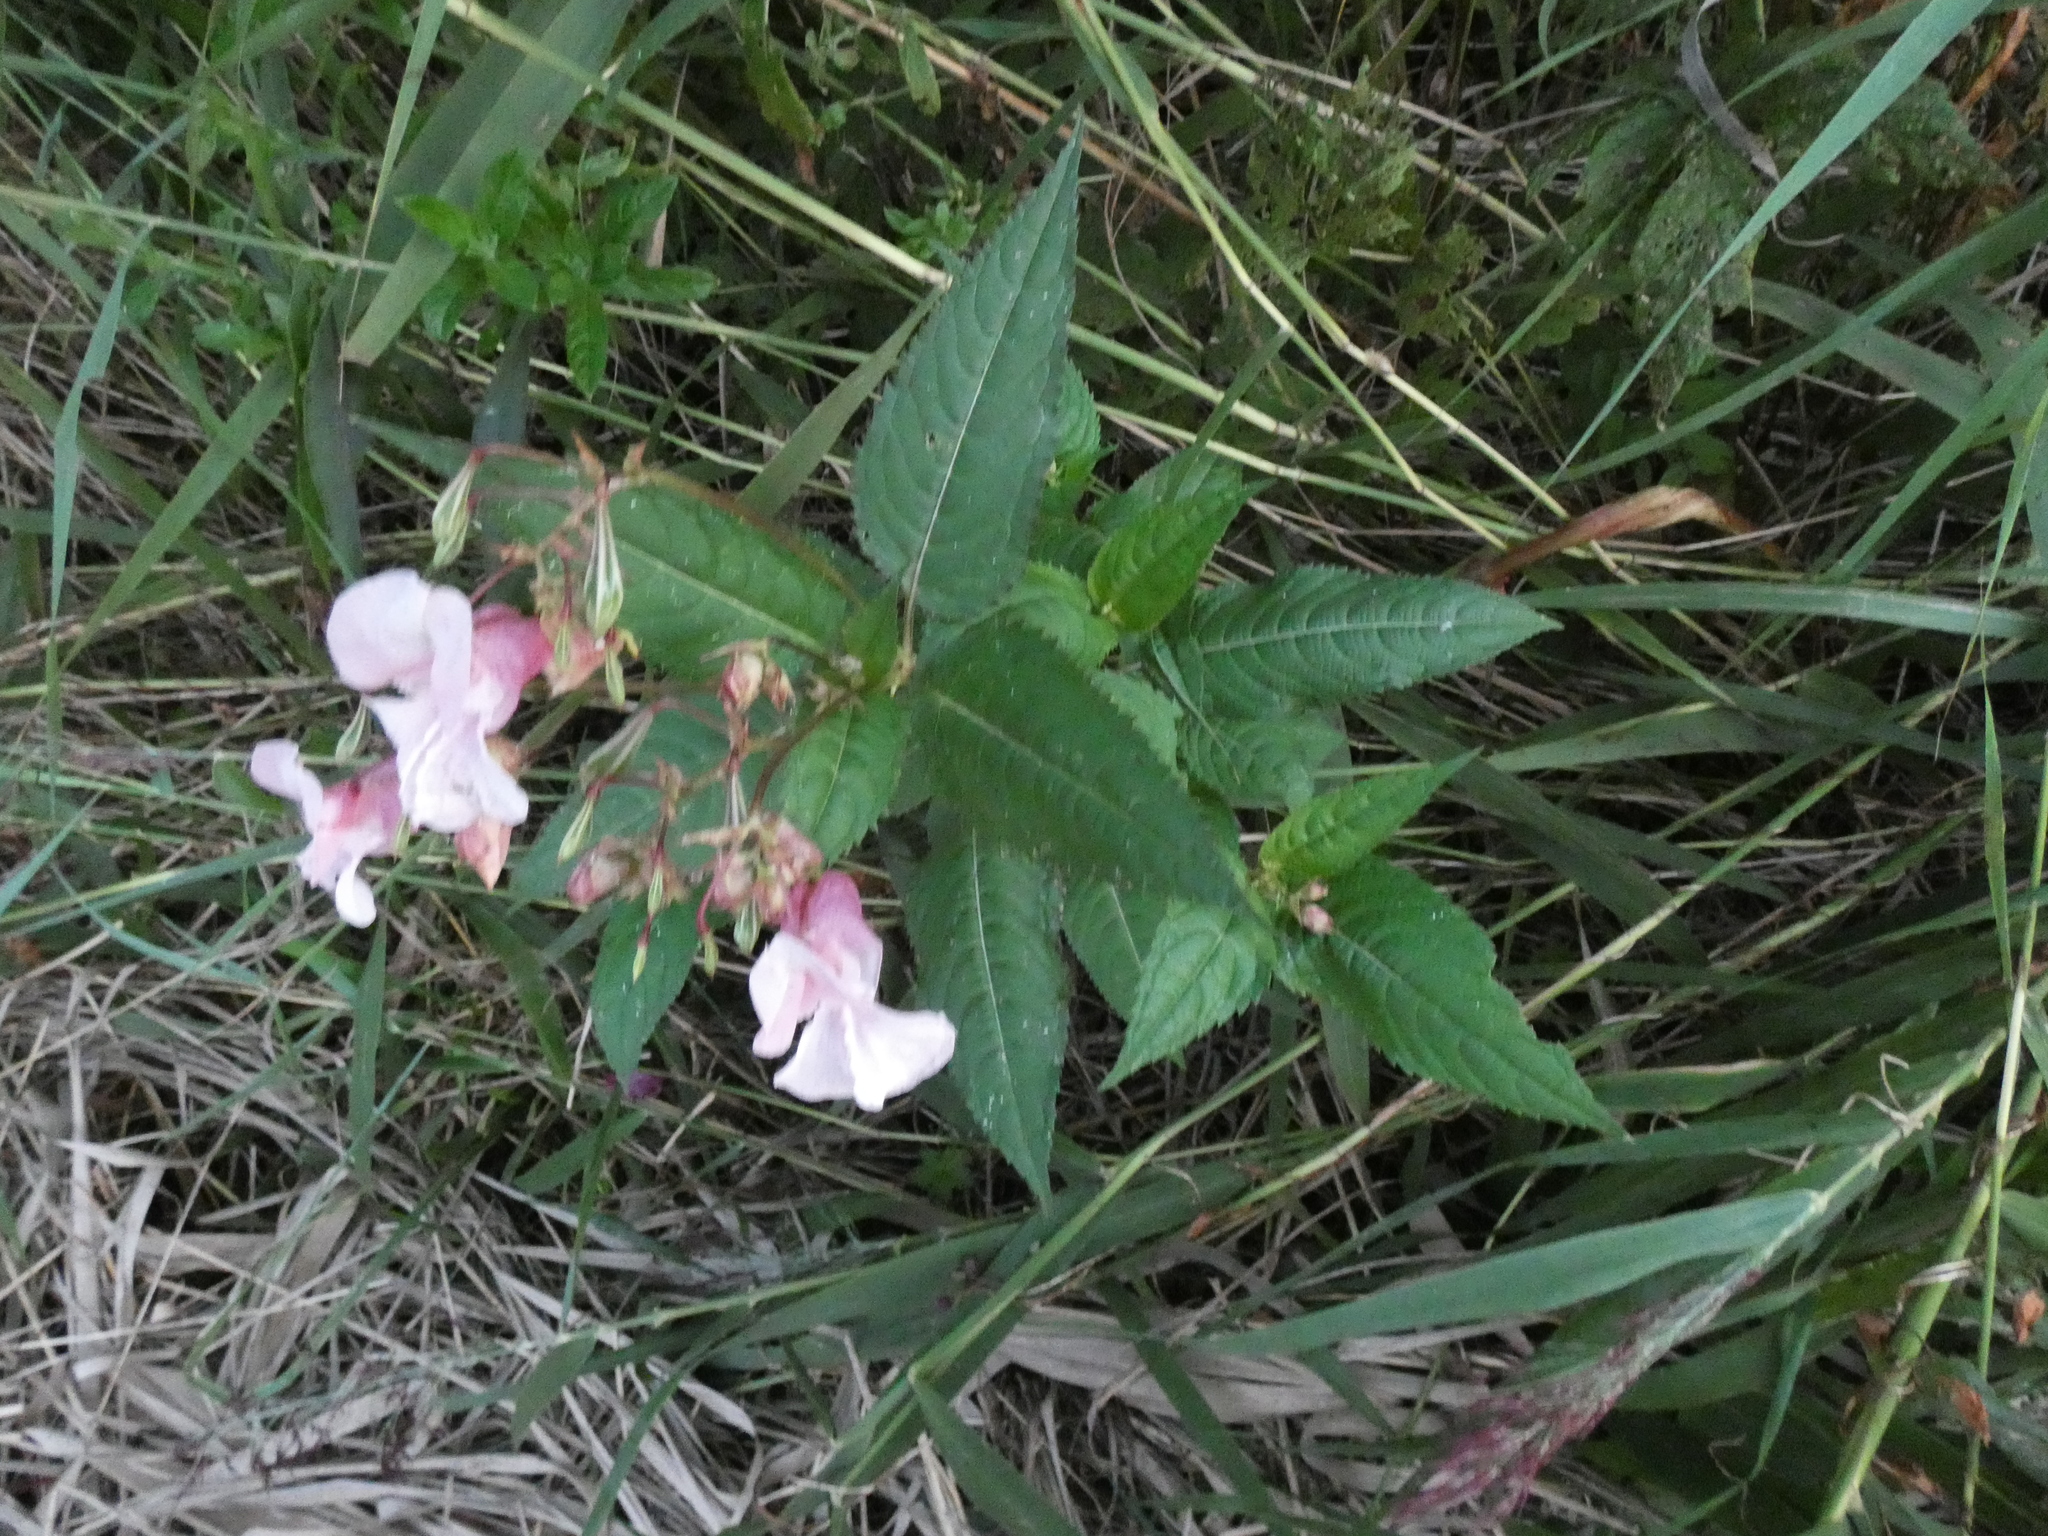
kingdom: Plantae
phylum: Tracheophyta
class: Magnoliopsida
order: Ericales
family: Balsaminaceae
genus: Impatiens
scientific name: Impatiens glandulifera
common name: Himalayan balsam
